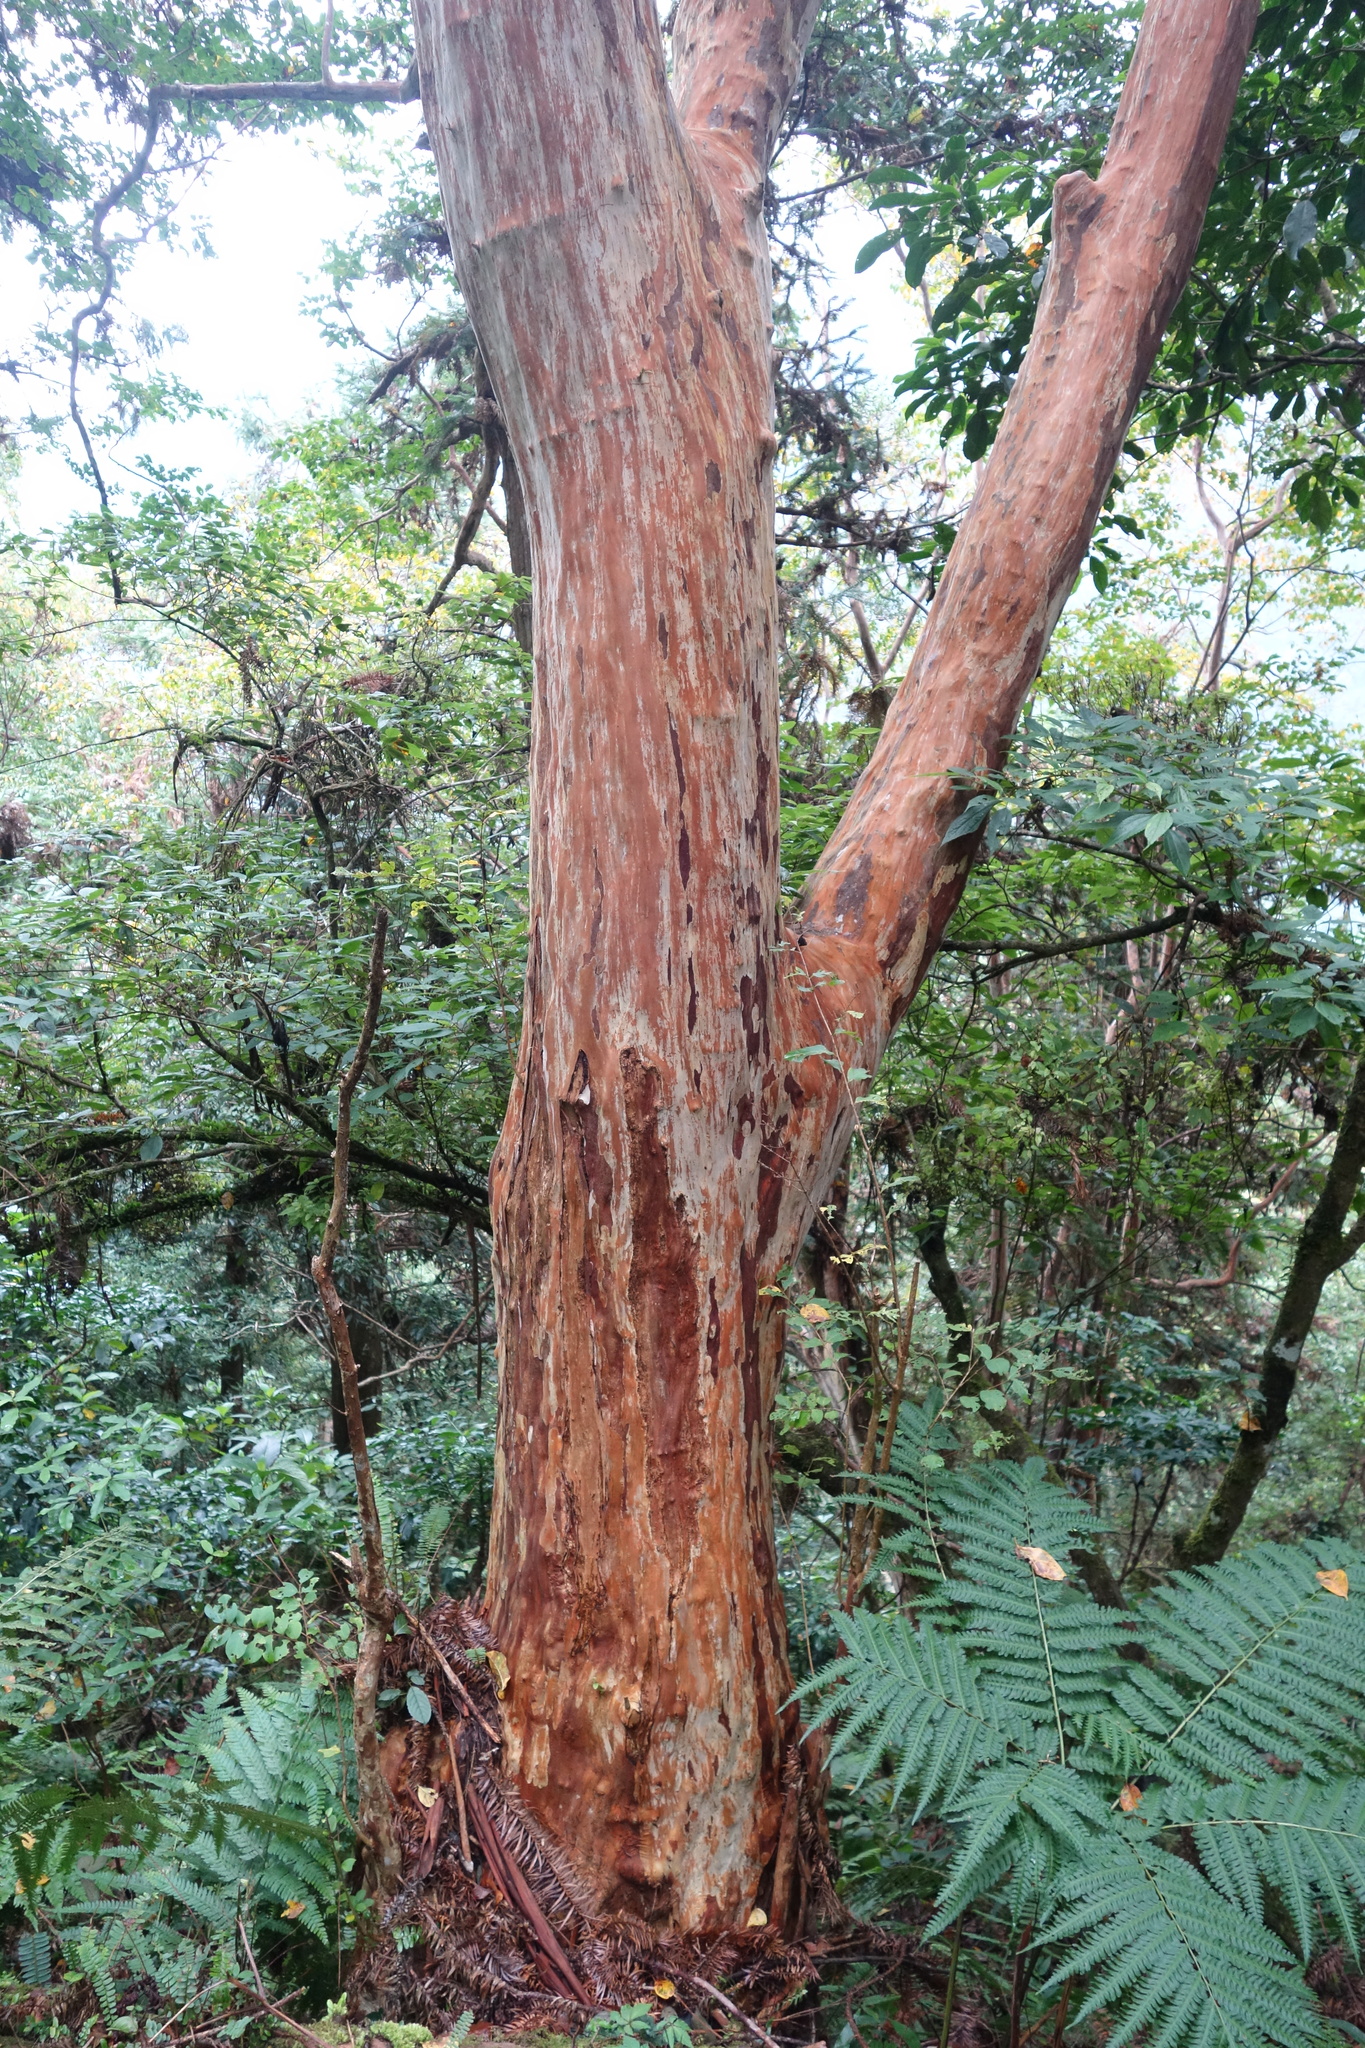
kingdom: Plantae
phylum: Tracheophyta
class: Magnoliopsida
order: Myrtales
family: Lythraceae
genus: Lagerstroemia
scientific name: Lagerstroemia subcostata
